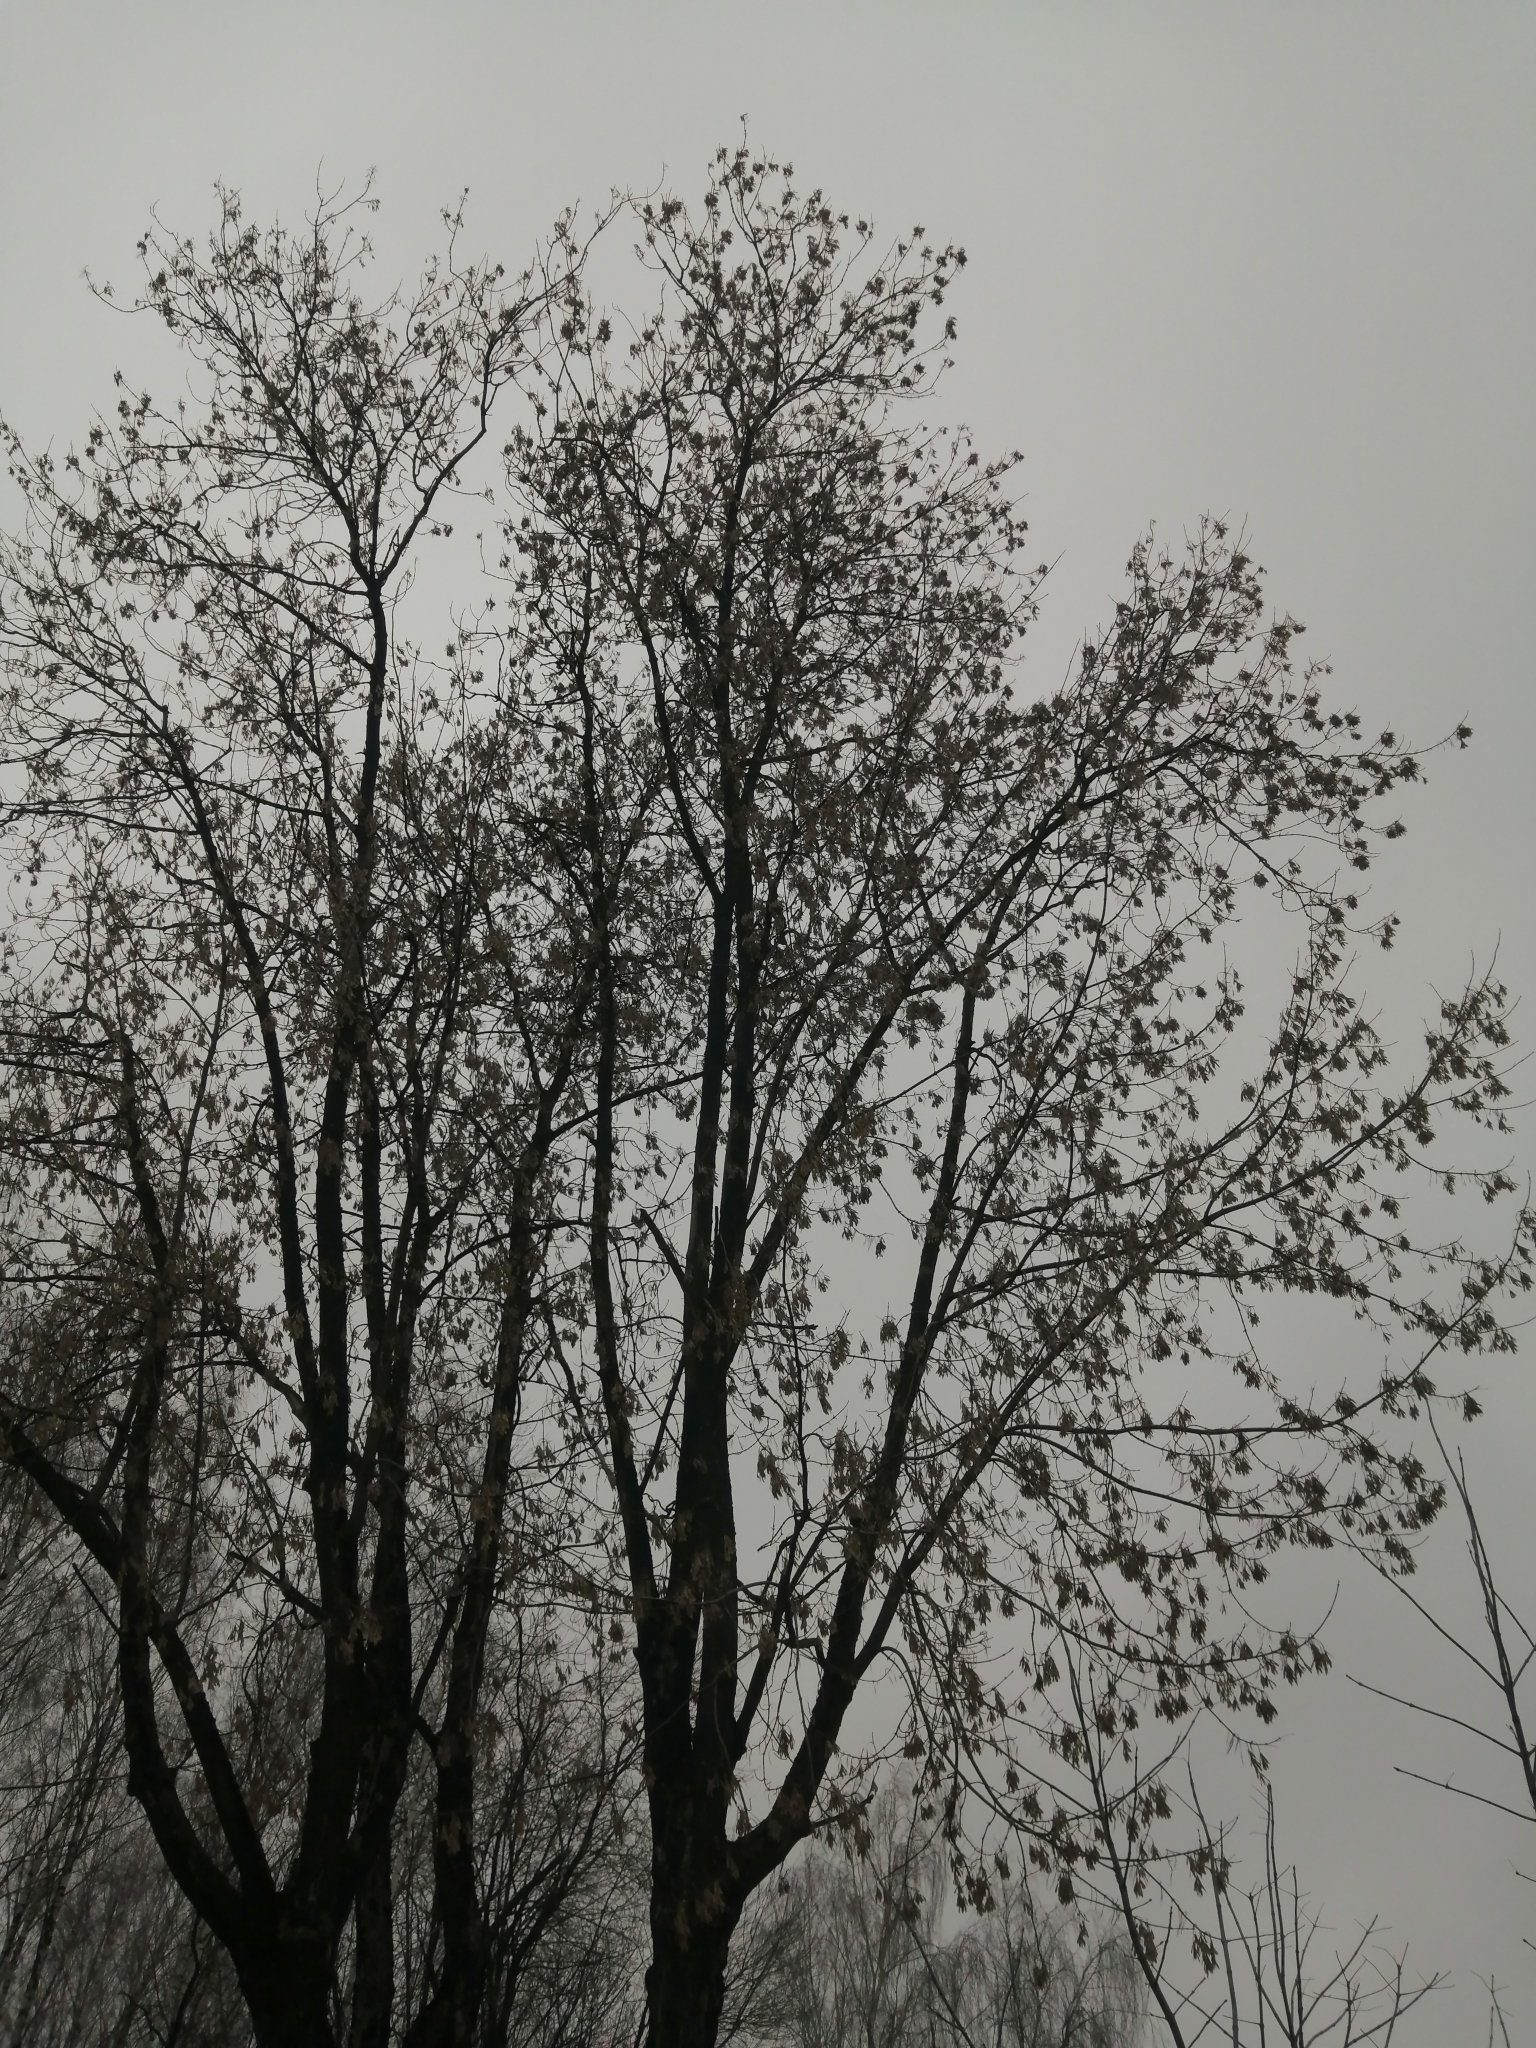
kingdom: Plantae
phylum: Tracheophyta
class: Magnoliopsida
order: Sapindales
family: Sapindaceae
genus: Acer
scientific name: Acer negundo
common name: Ashleaf maple
